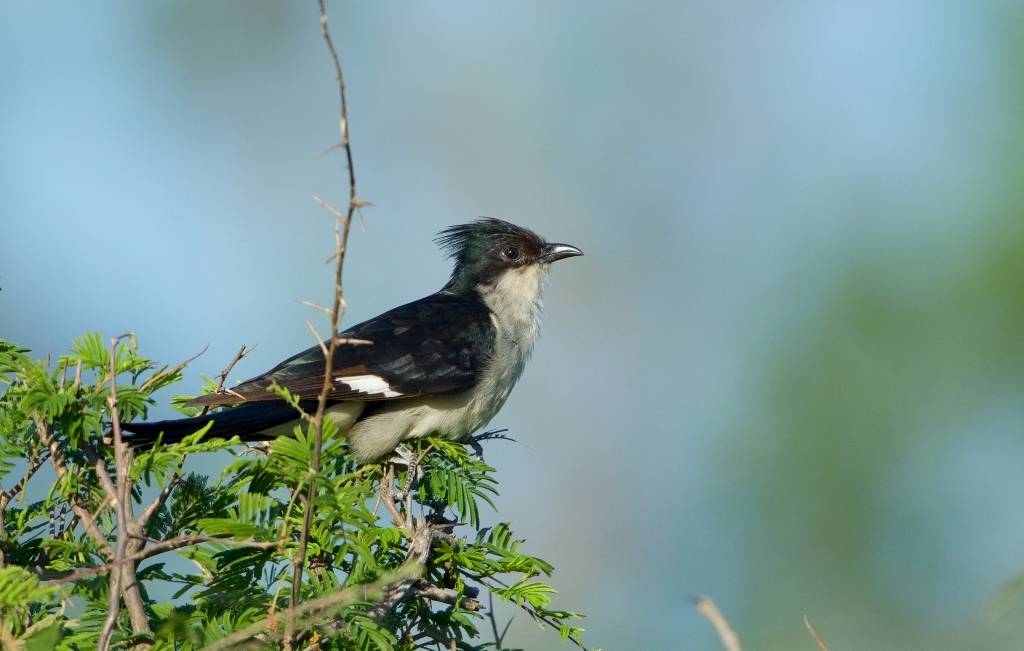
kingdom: Animalia
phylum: Chordata
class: Aves
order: Cuculiformes
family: Cuculidae
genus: Clamator
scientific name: Clamator jacobinus
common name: Jacobin cuckoo
